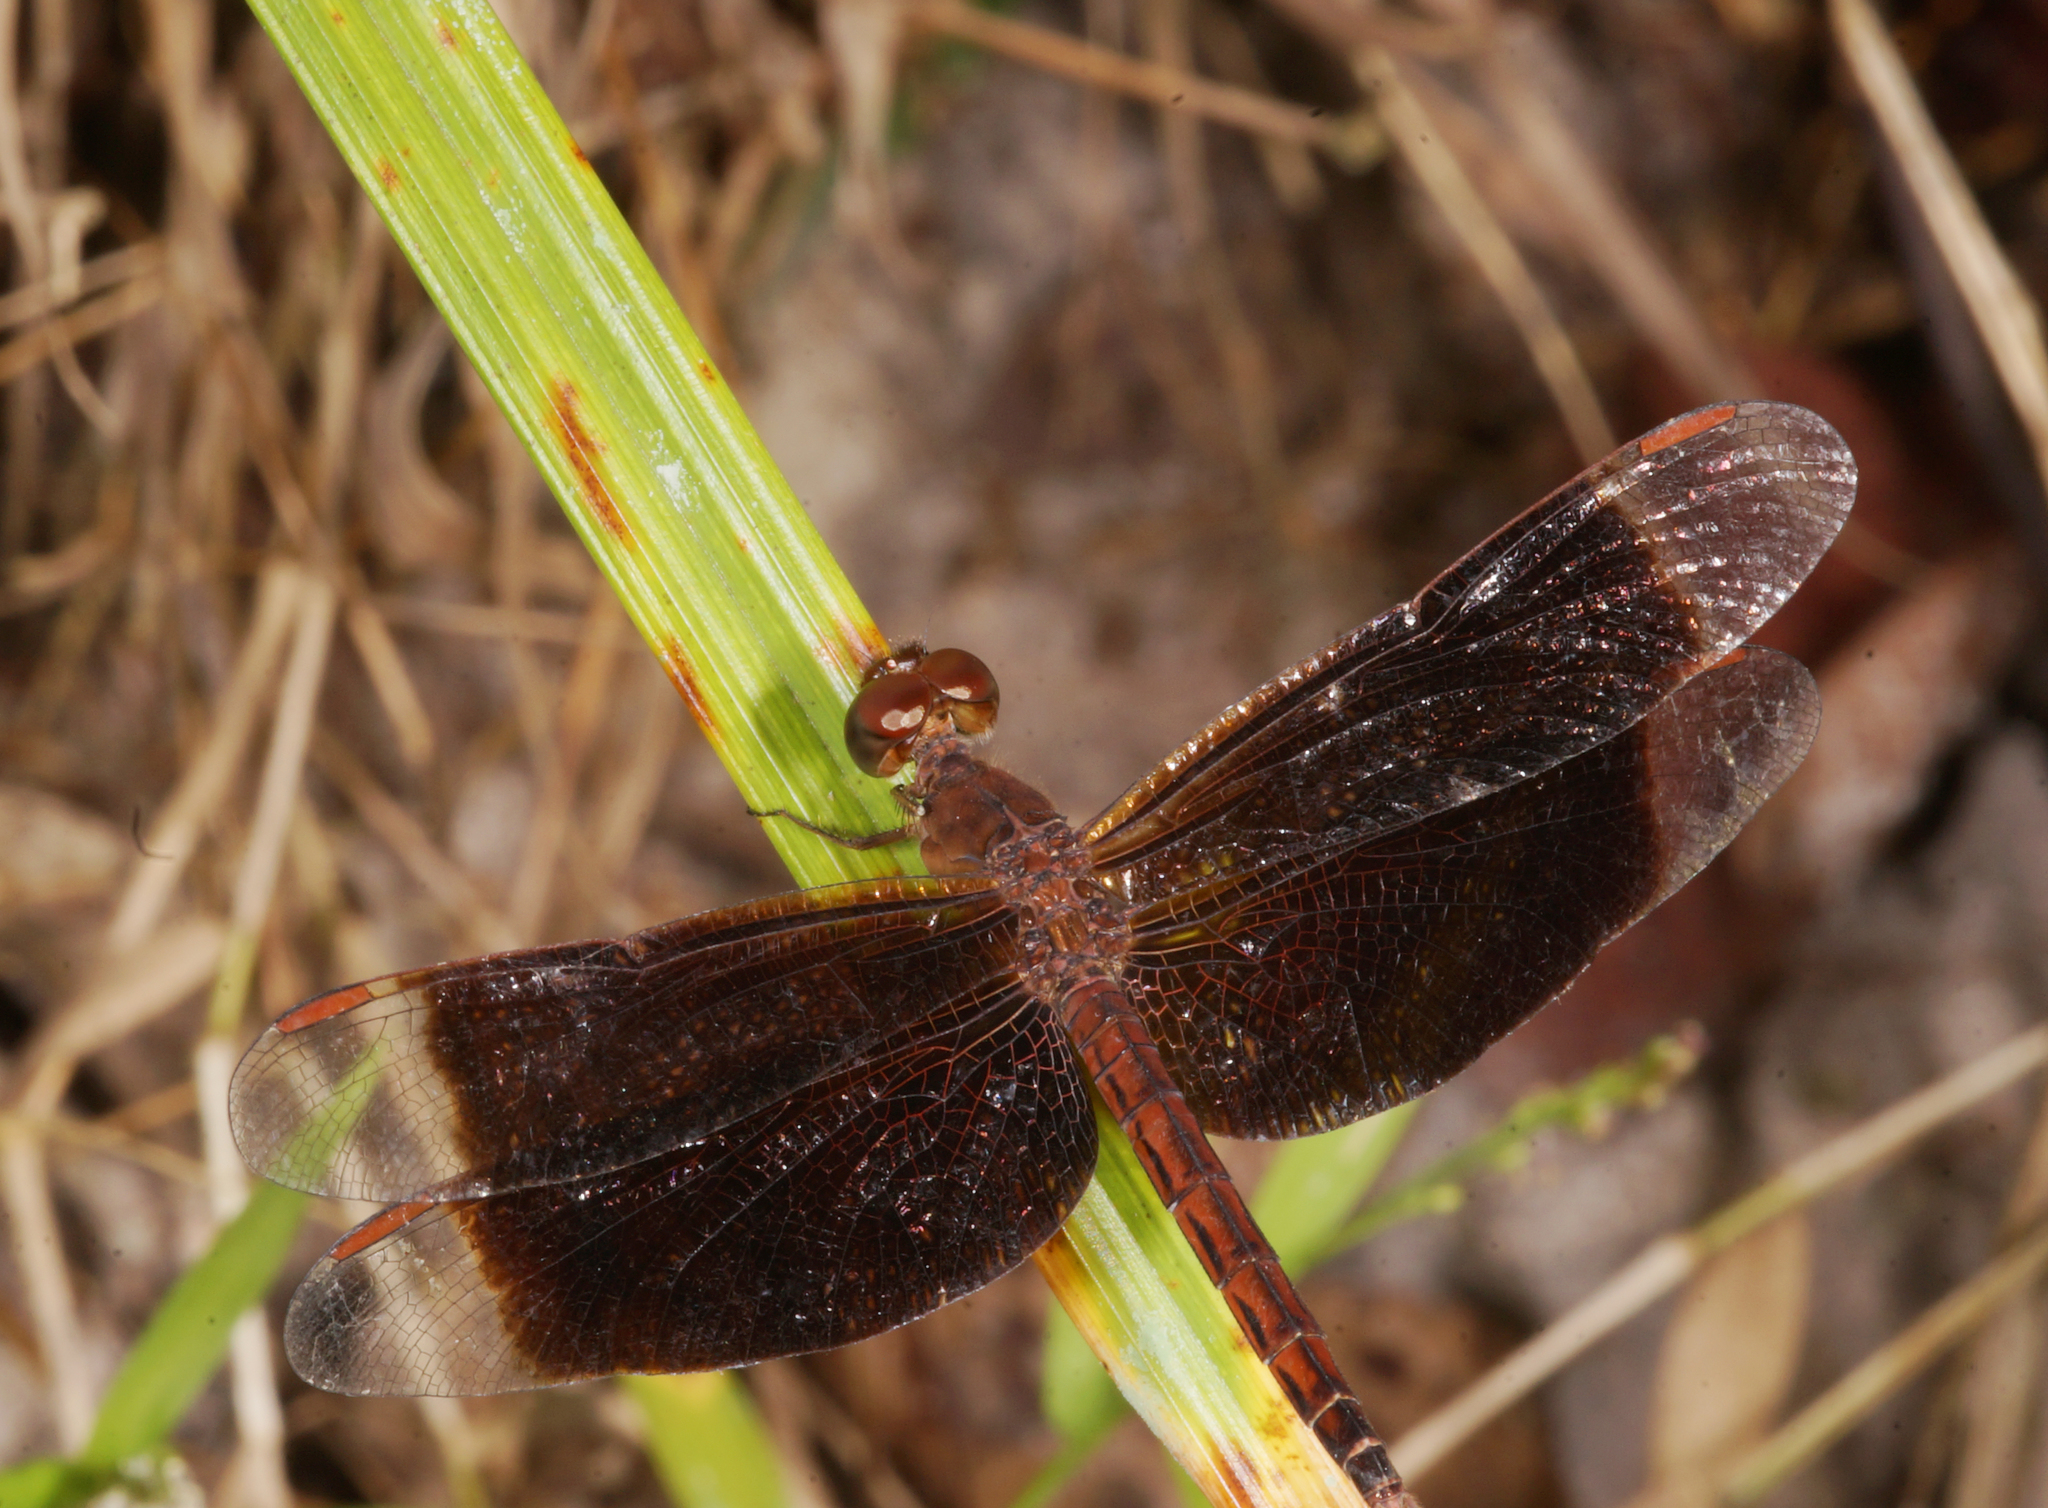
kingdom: Animalia
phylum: Arthropoda
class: Insecta
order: Odonata
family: Libellulidae
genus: Neurothemis
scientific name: Neurothemis fluctuans
